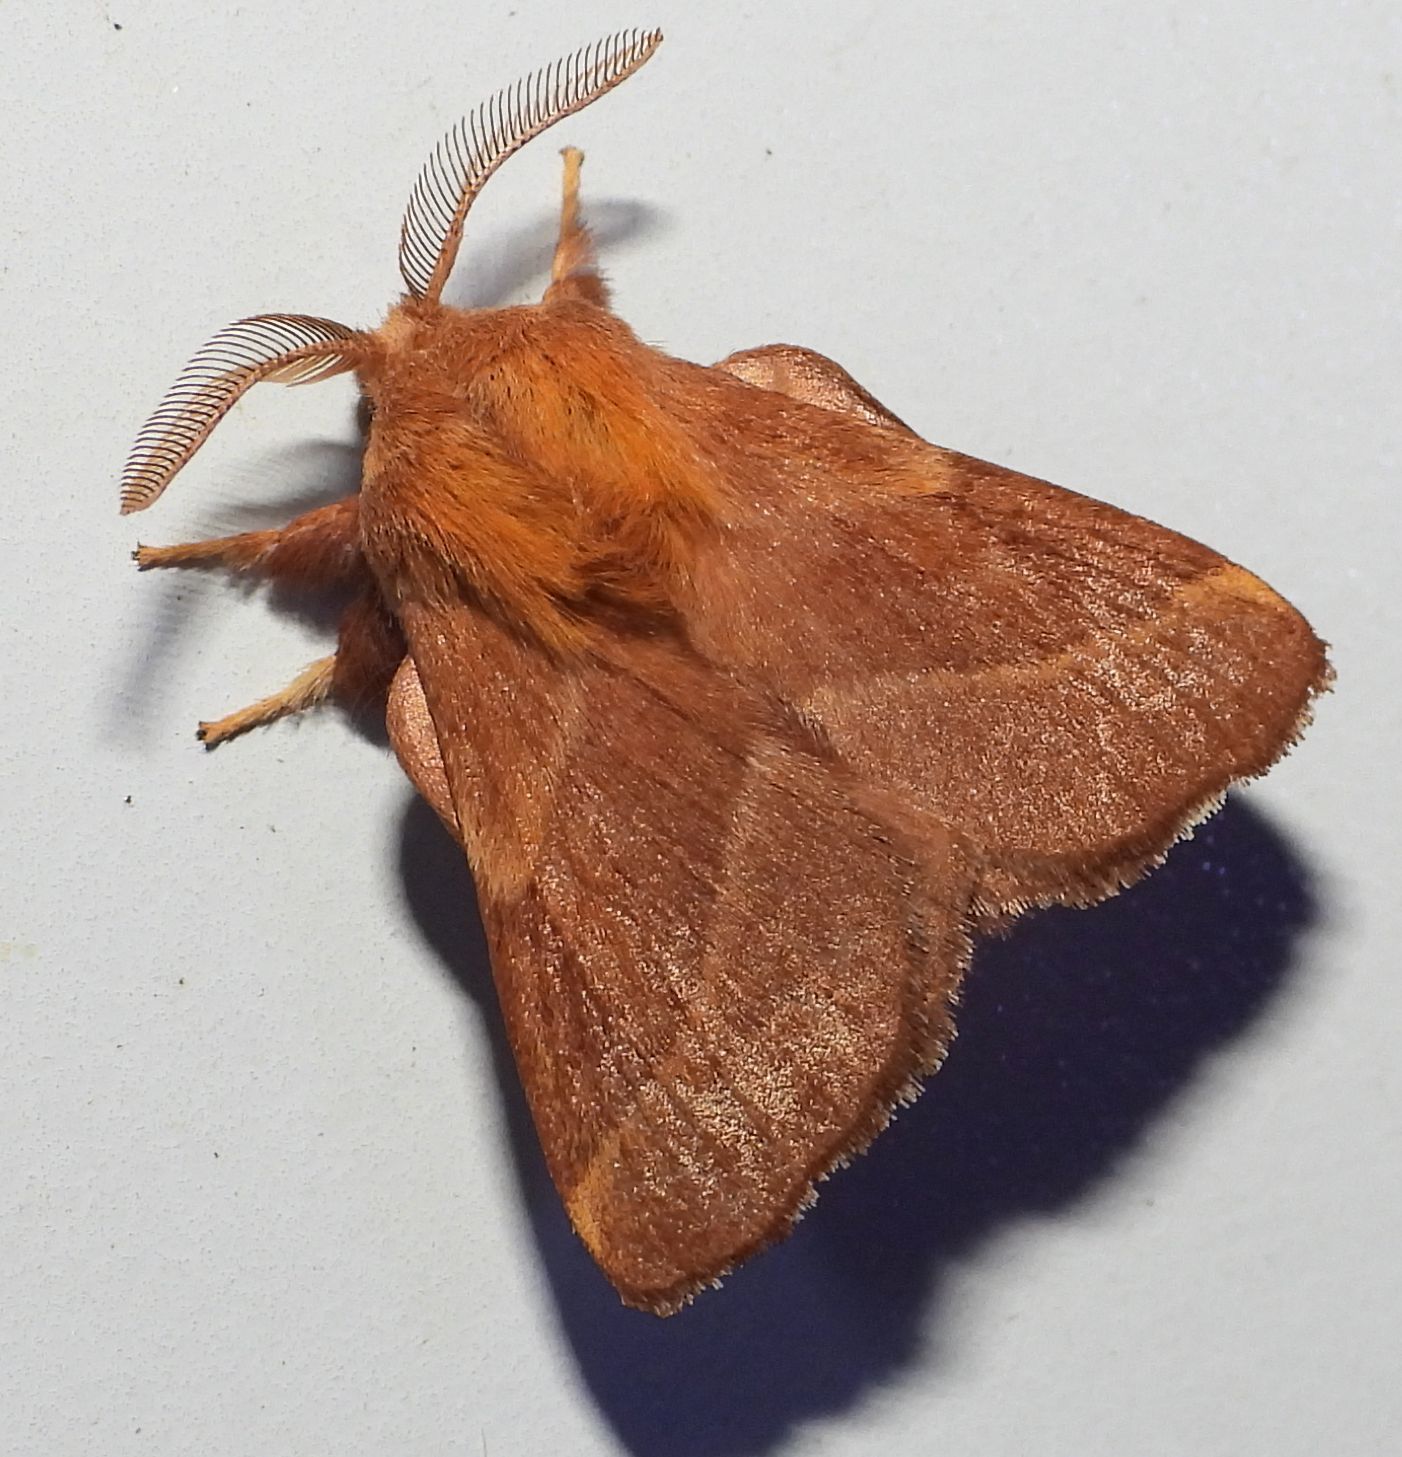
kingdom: Animalia
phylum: Arthropoda
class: Insecta
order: Lepidoptera
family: Lasiocampidae
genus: Malacosoma
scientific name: Malacosoma disstria
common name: Forest tent caterpillar
